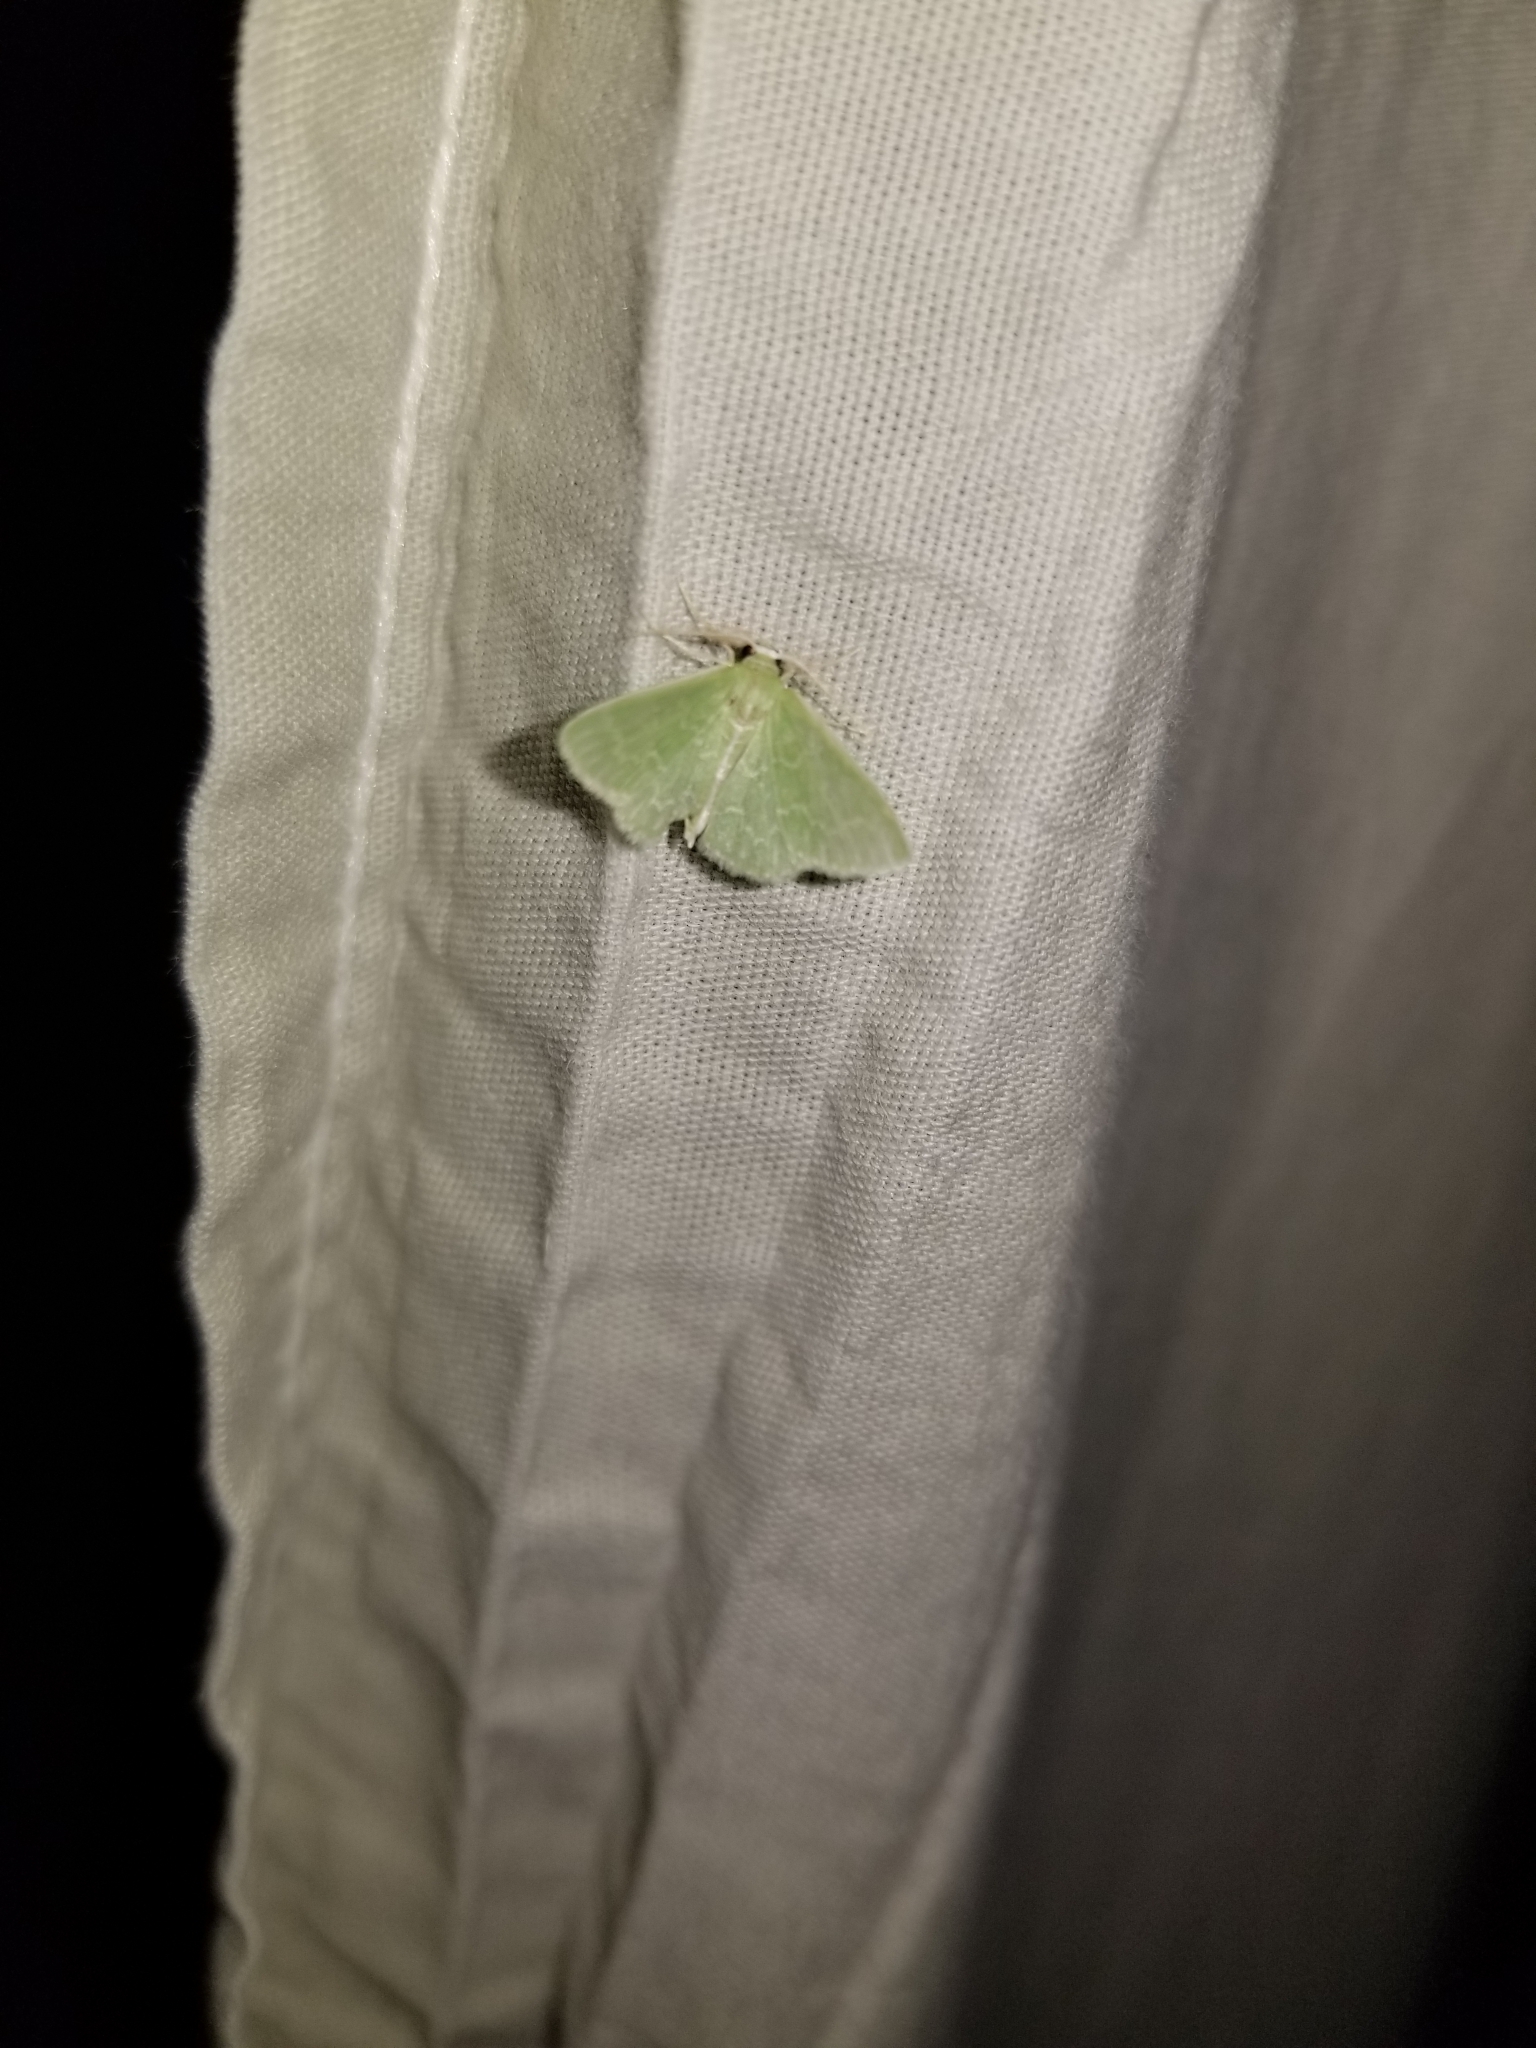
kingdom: Animalia
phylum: Arthropoda
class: Insecta
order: Lepidoptera
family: Geometridae
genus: Synchlora
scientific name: Synchlora frondaria
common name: Southern emerald
